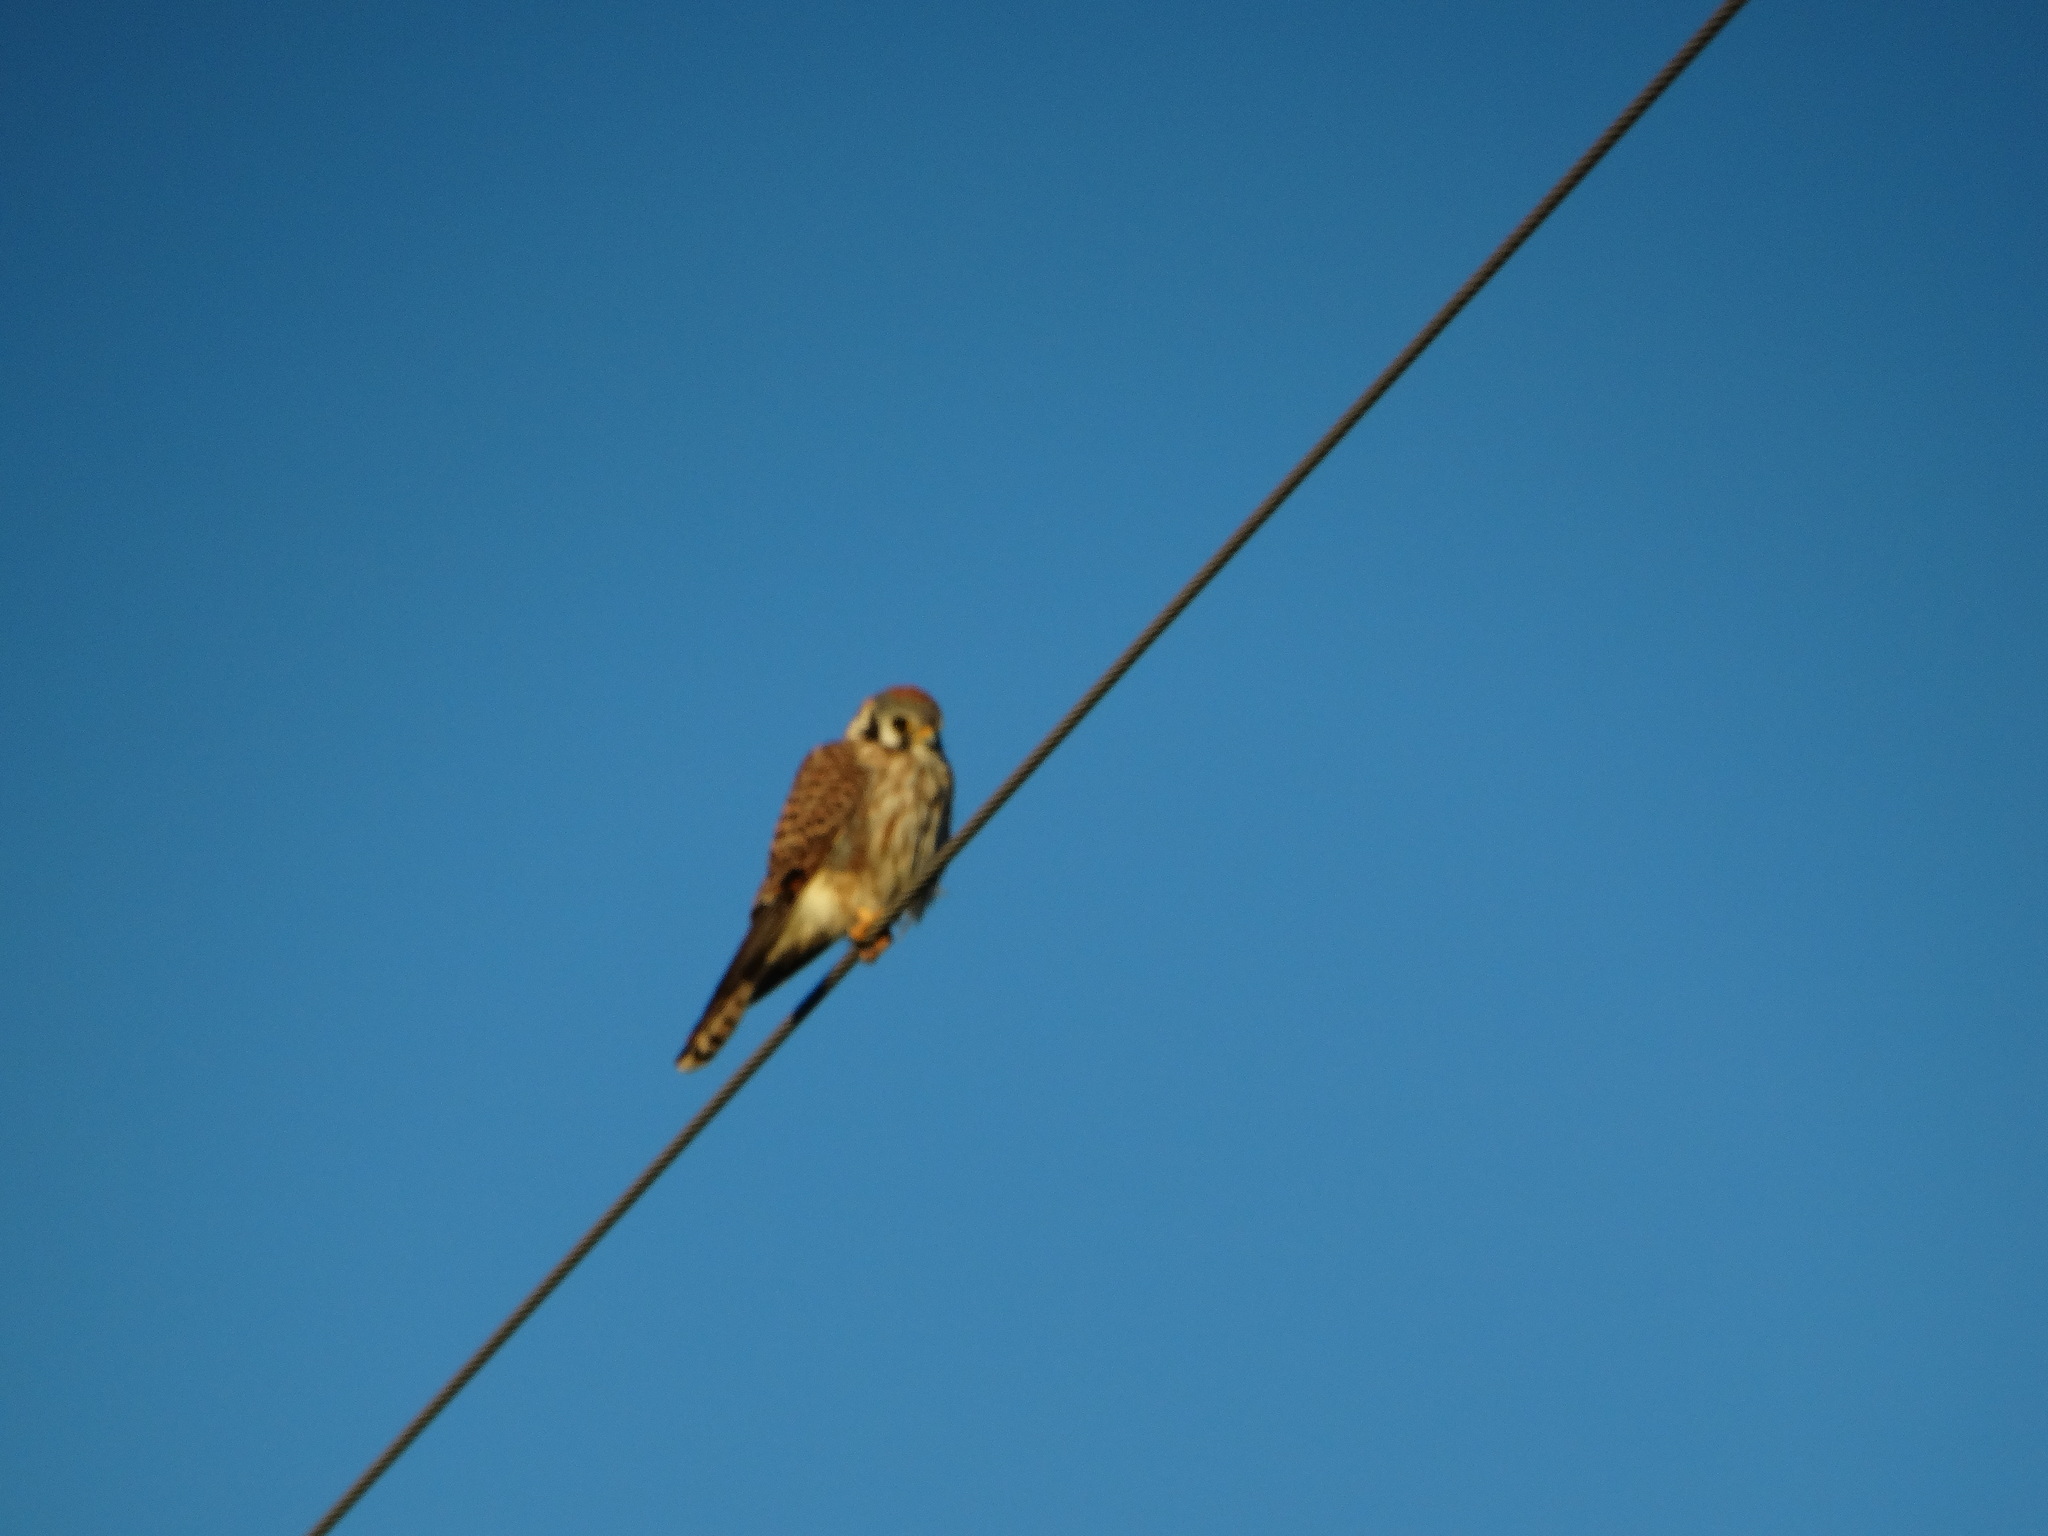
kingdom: Animalia
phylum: Chordata
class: Aves
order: Falconiformes
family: Falconidae
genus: Falco
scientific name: Falco sparverius
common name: American kestrel
